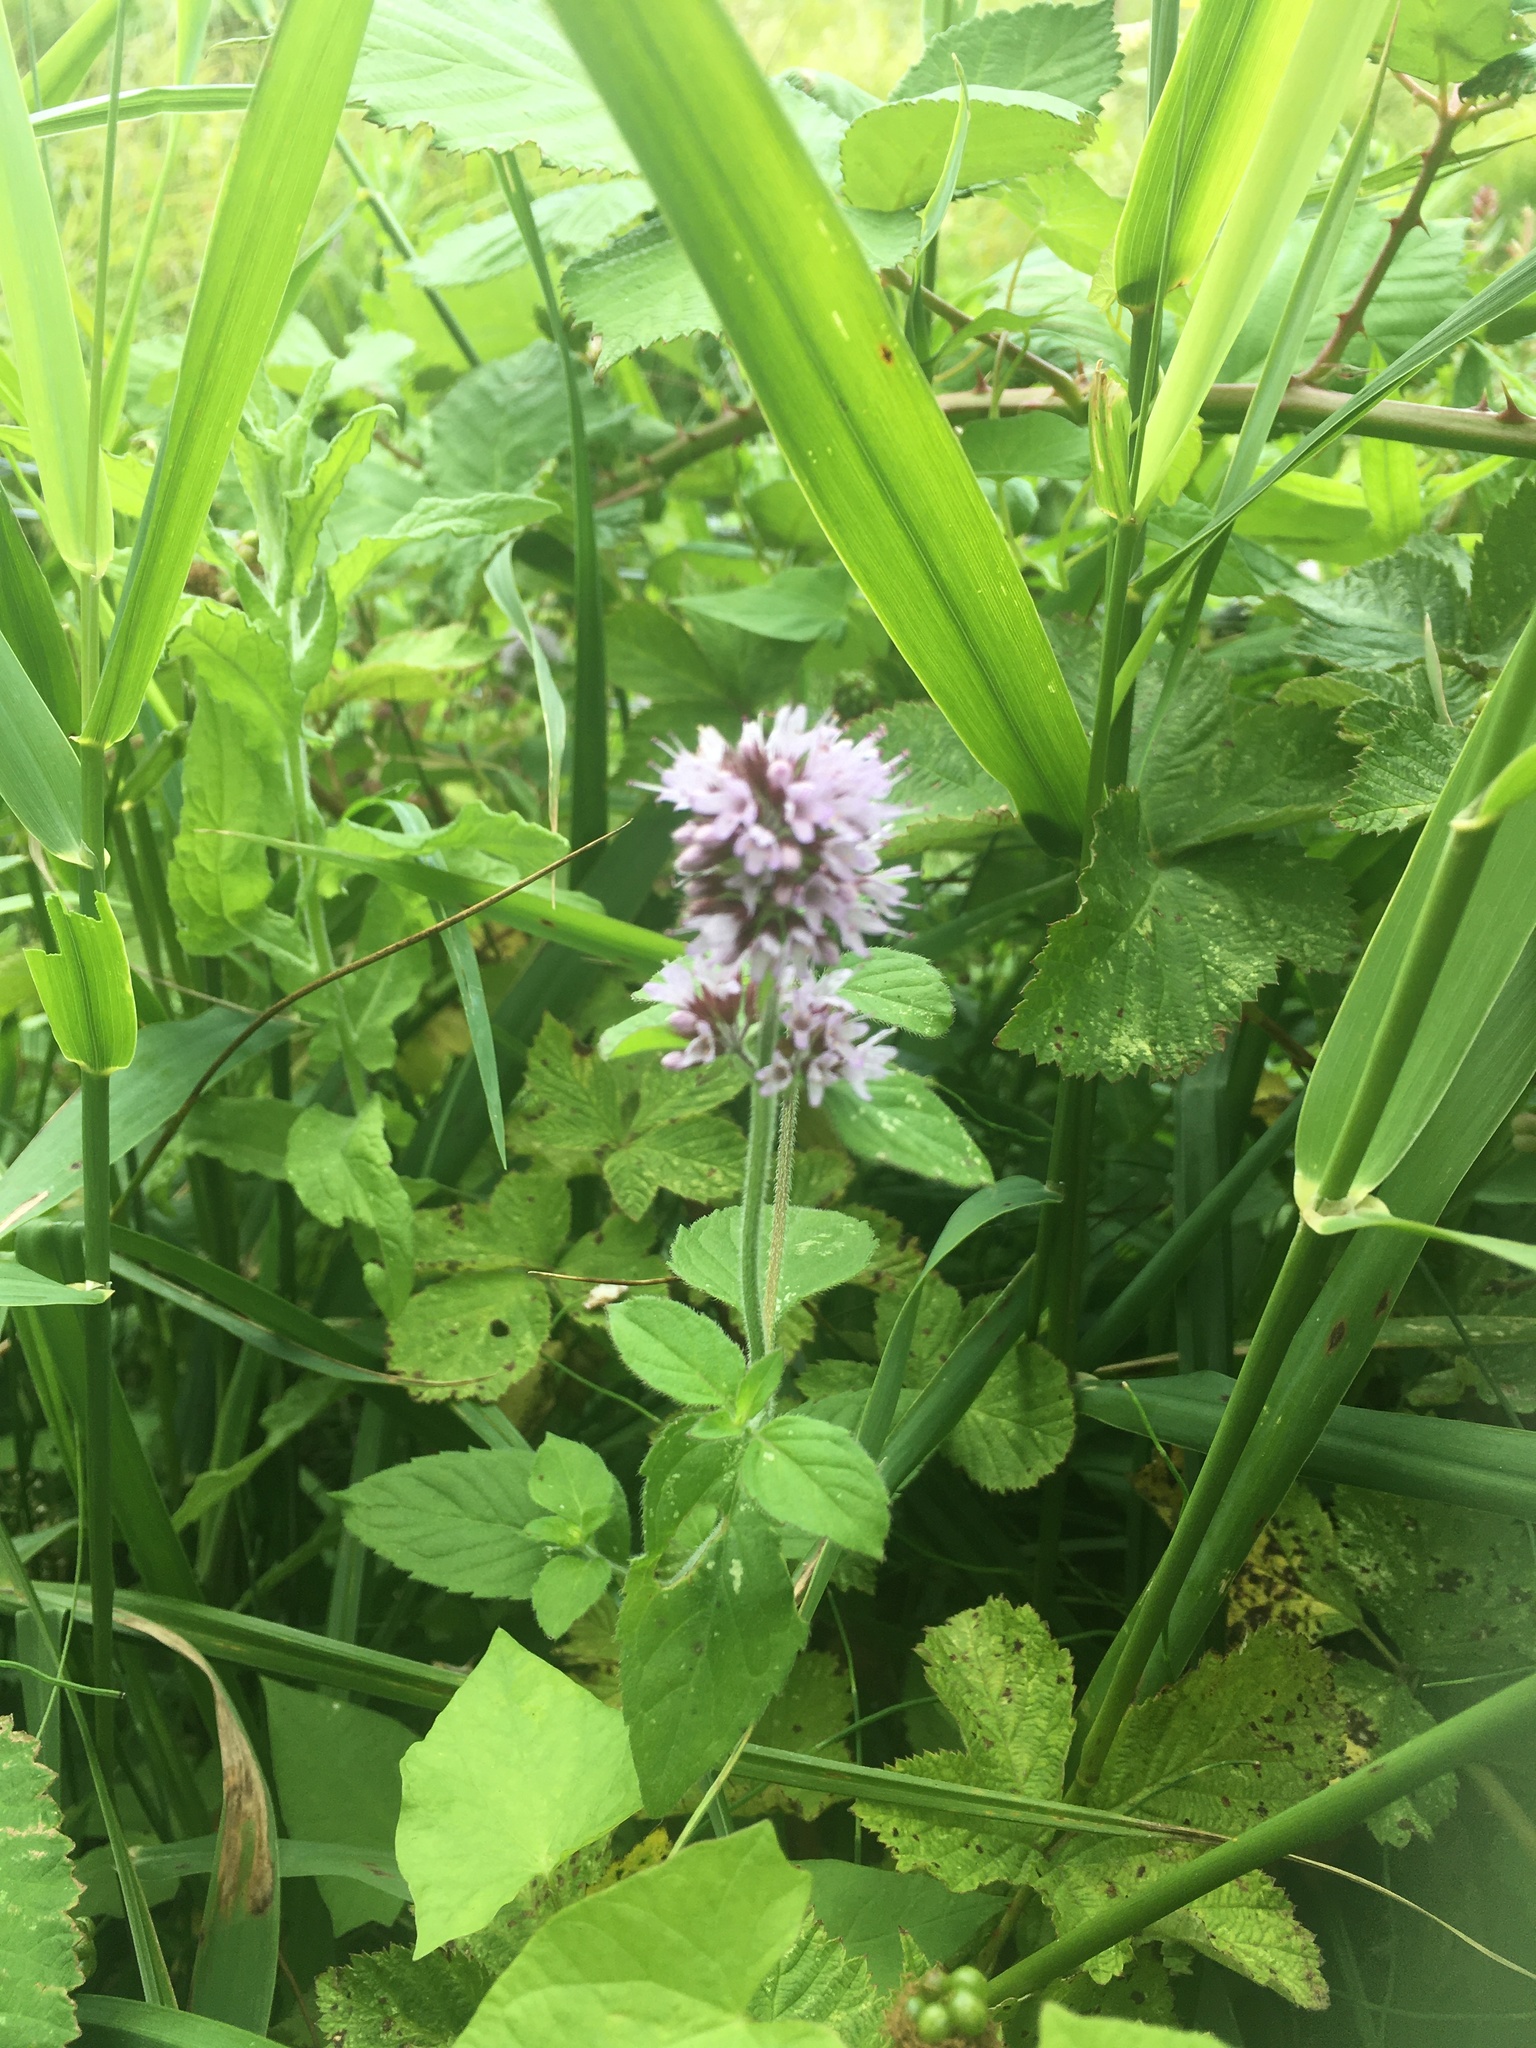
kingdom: Plantae
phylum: Tracheophyta
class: Magnoliopsida
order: Lamiales
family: Lamiaceae
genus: Mentha
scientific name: Mentha aquatica
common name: Water mint
